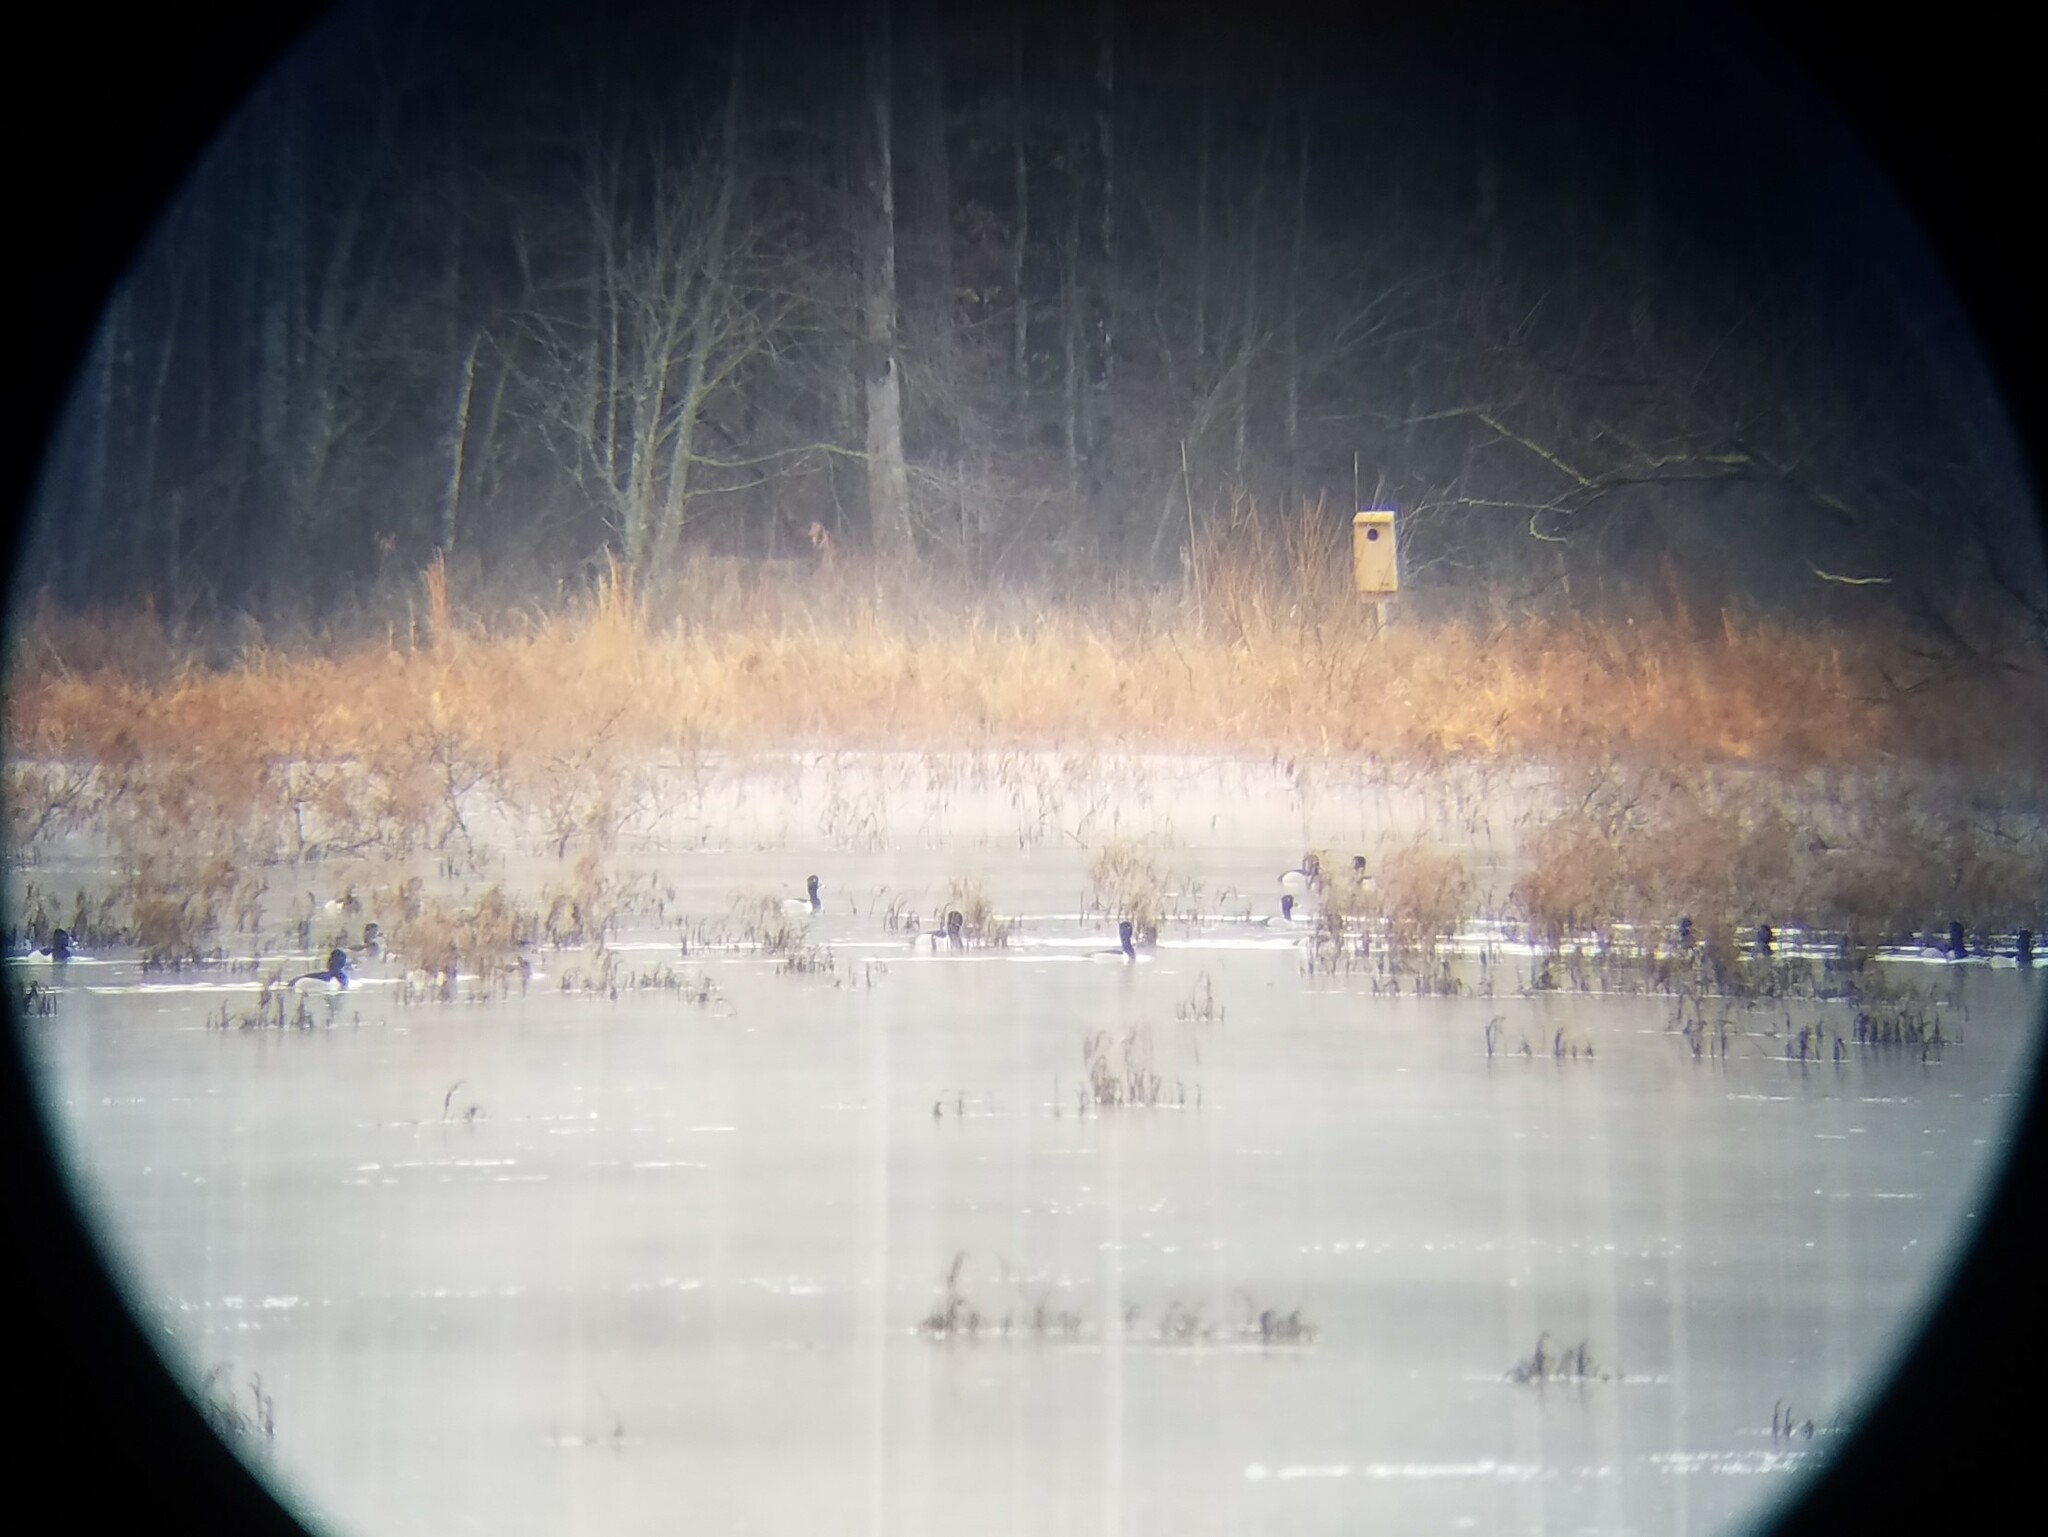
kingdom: Animalia
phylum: Chordata
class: Aves
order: Anseriformes
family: Anatidae
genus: Aythya
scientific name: Aythya collaris
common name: Ring-necked duck
